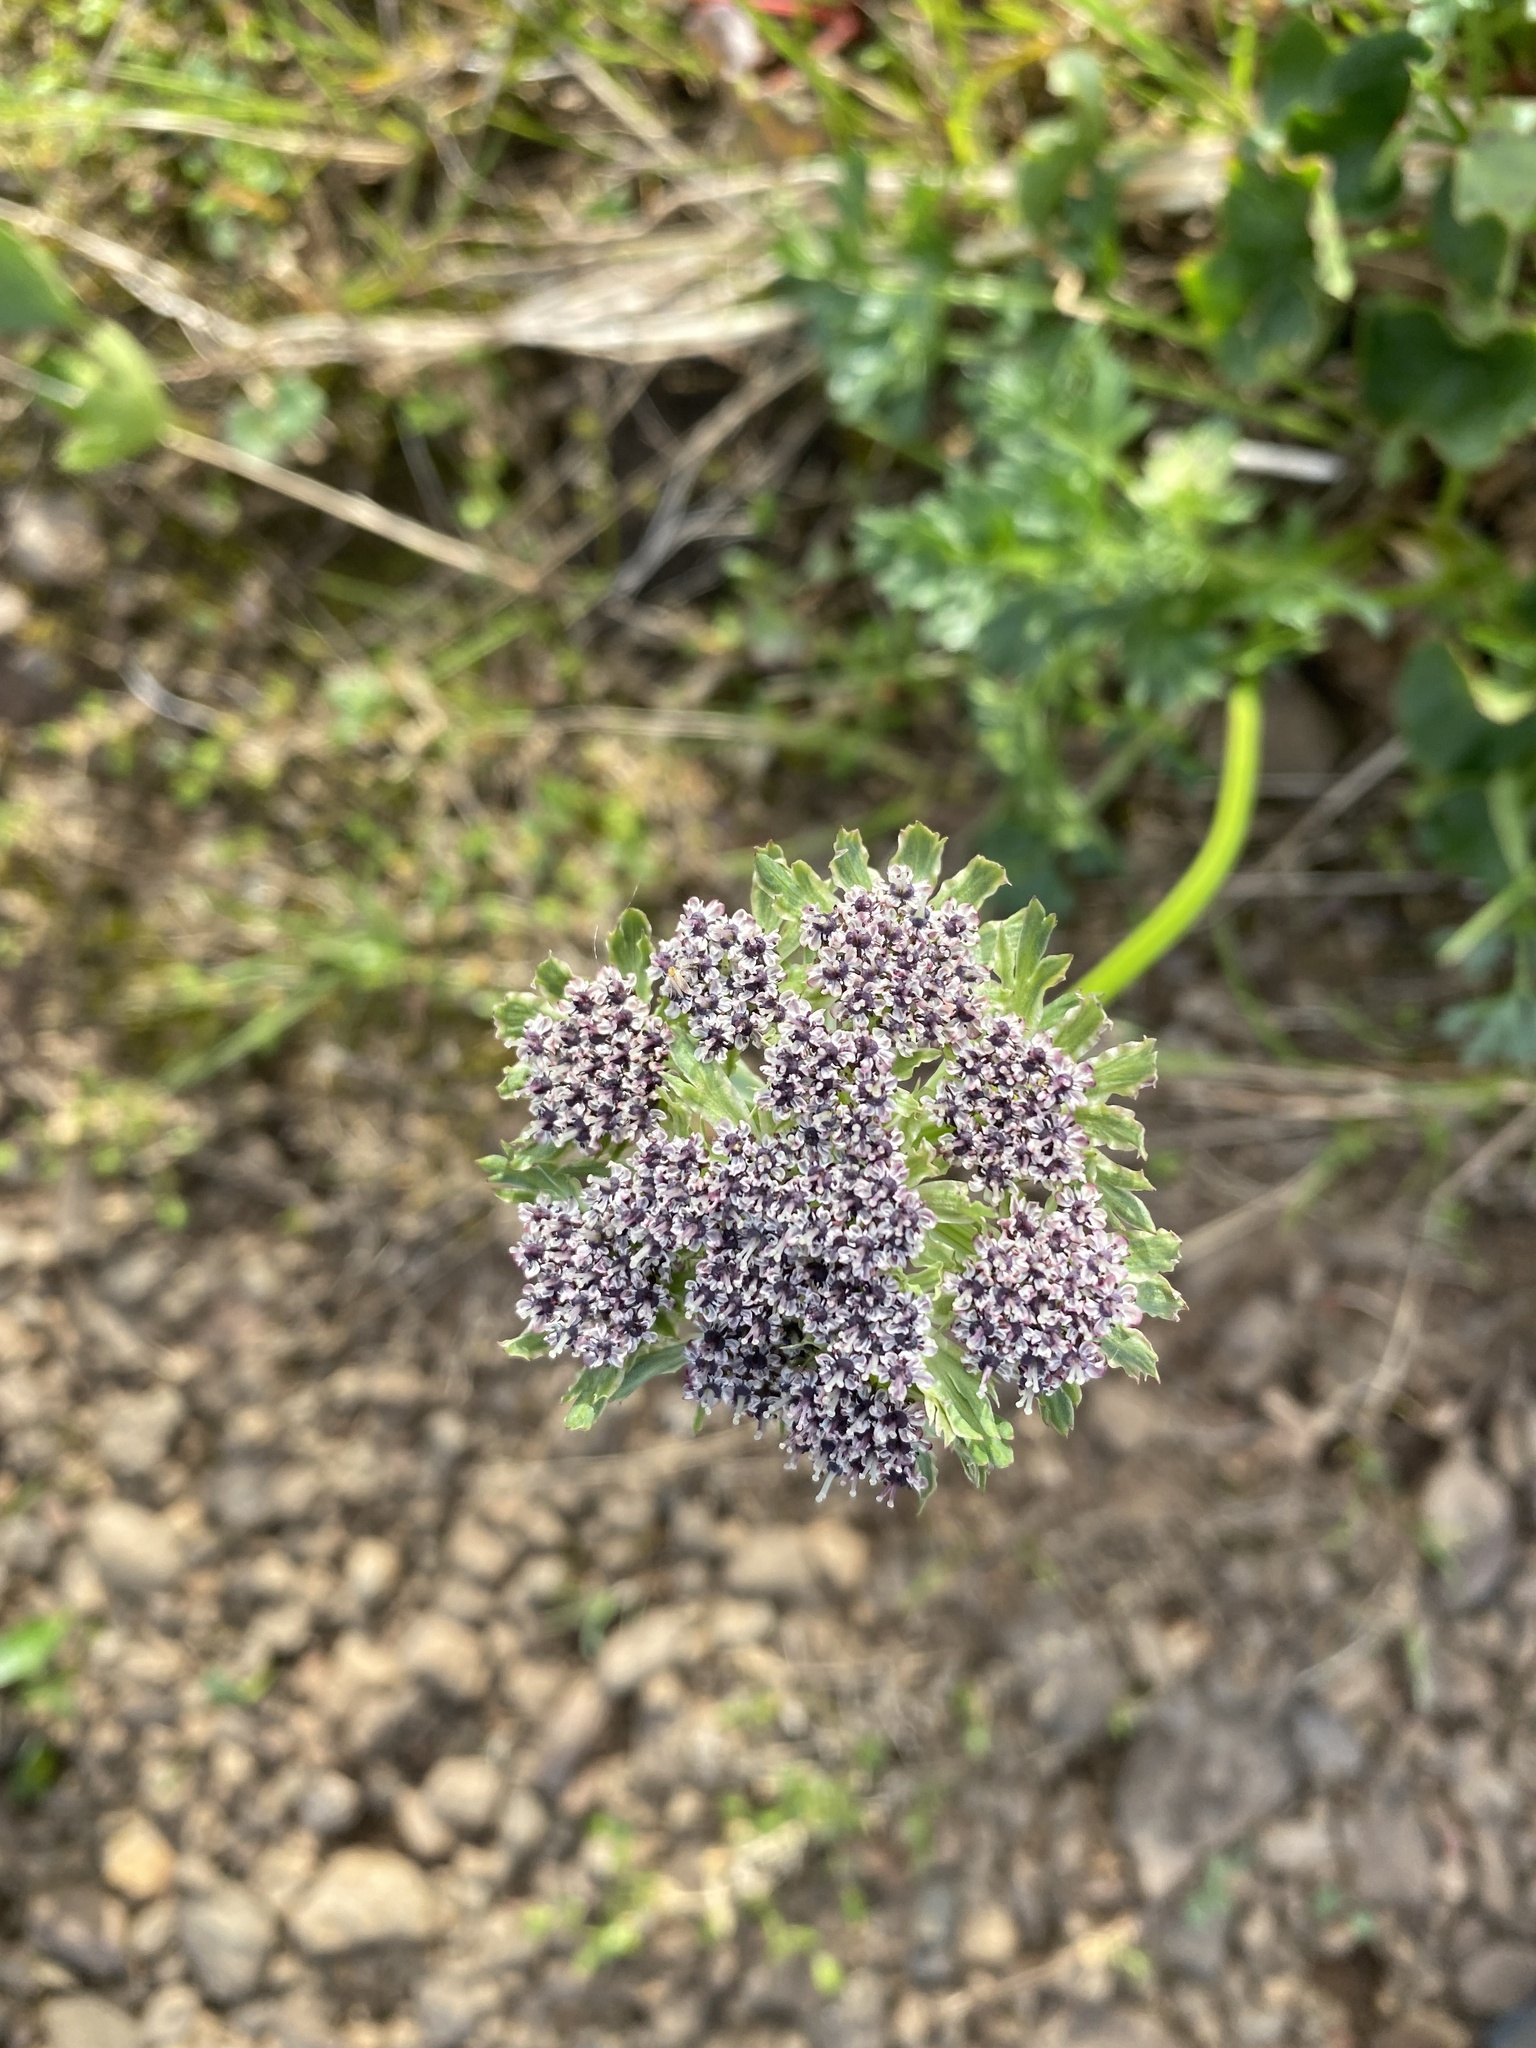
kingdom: Plantae
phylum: Tracheophyta
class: Magnoliopsida
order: Apiales
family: Apiaceae
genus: Pachypleurum
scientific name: Pachypleurum mutellinoides
